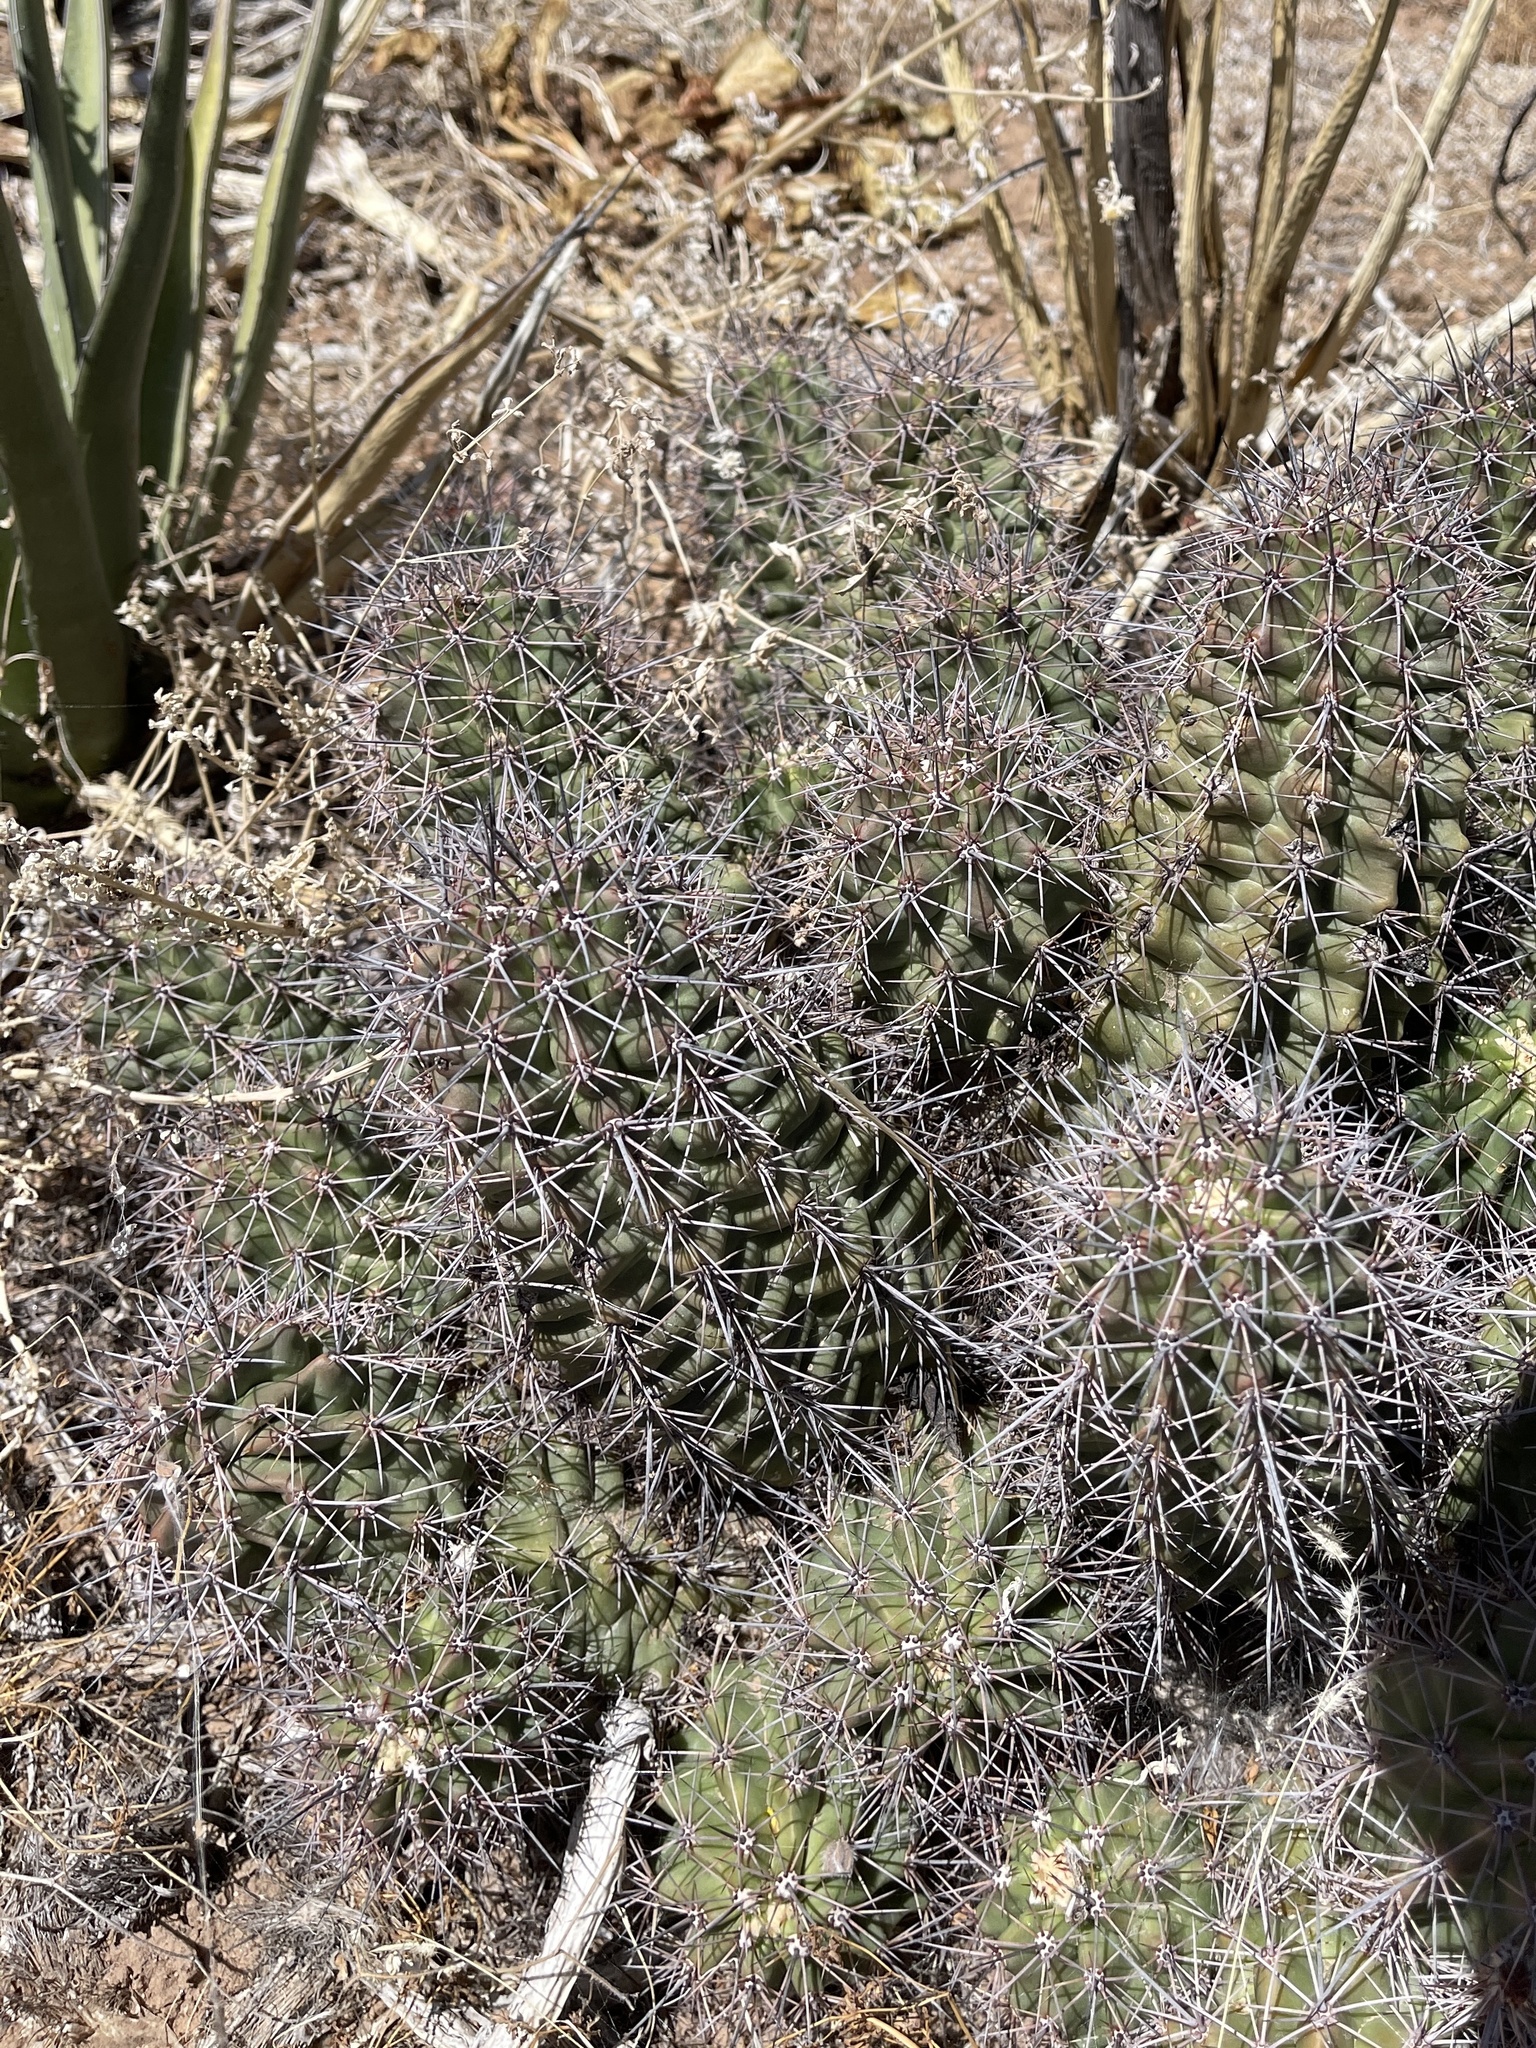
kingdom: Plantae
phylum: Tracheophyta
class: Magnoliopsida
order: Caryophyllales
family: Cactaceae
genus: Echinocereus
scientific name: Echinocereus coccineus
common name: Scarlet hedgehog cactus
